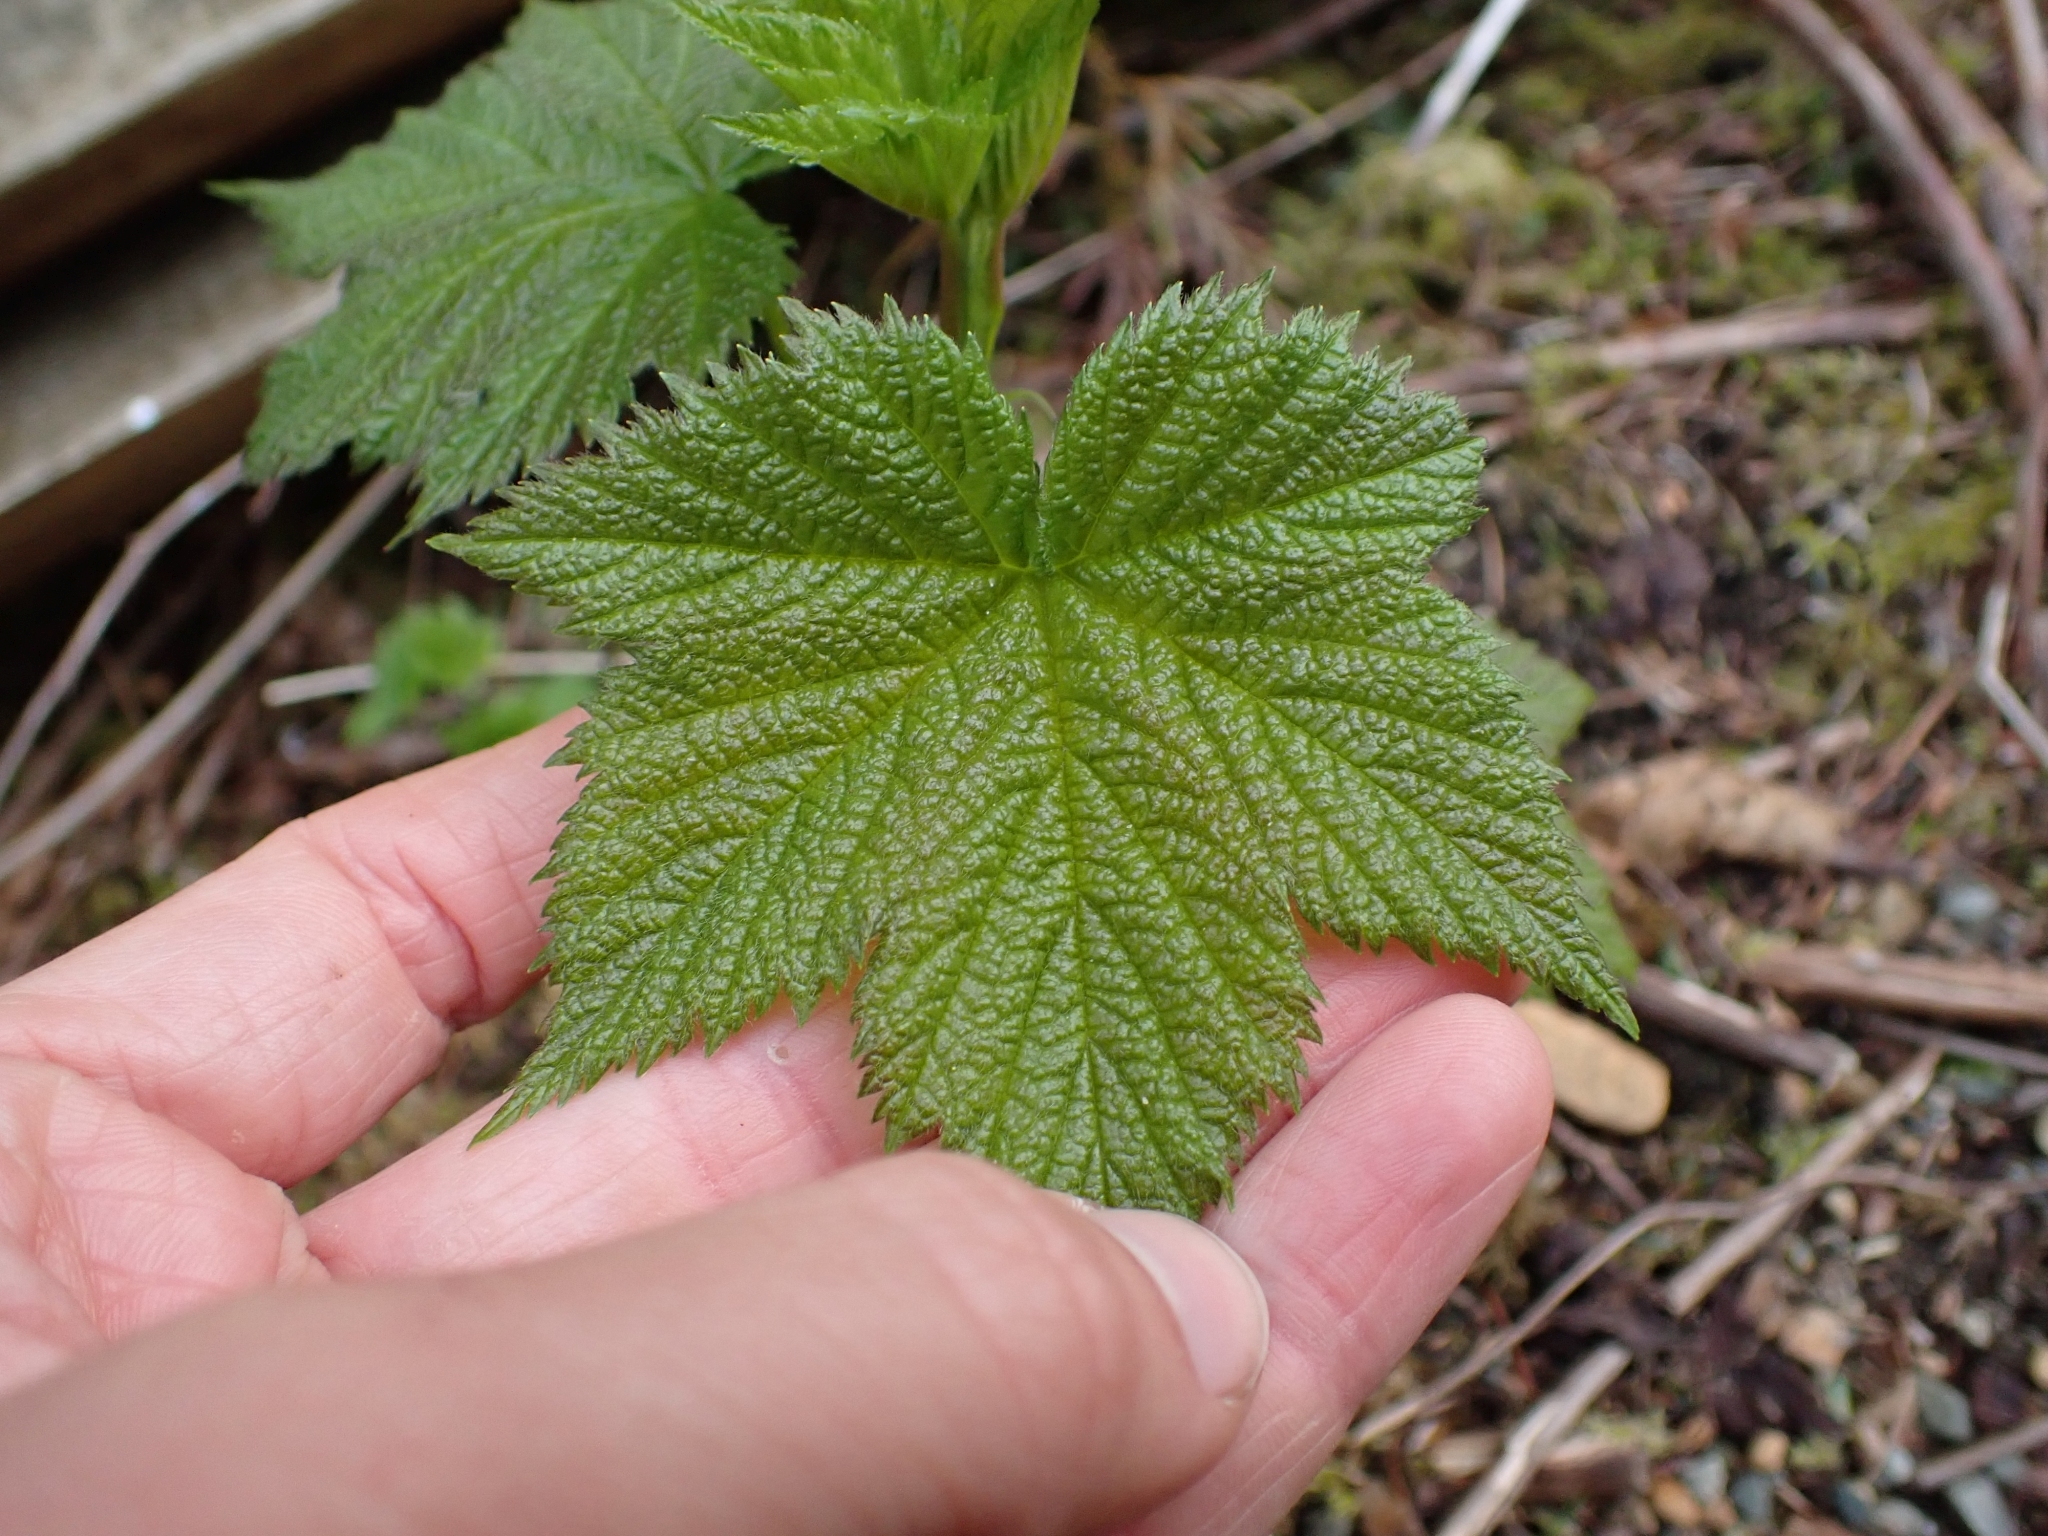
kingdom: Plantae
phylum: Tracheophyta
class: Magnoliopsida
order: Rosales
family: Rosaceae
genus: Rubus
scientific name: Rubus parviflorus
